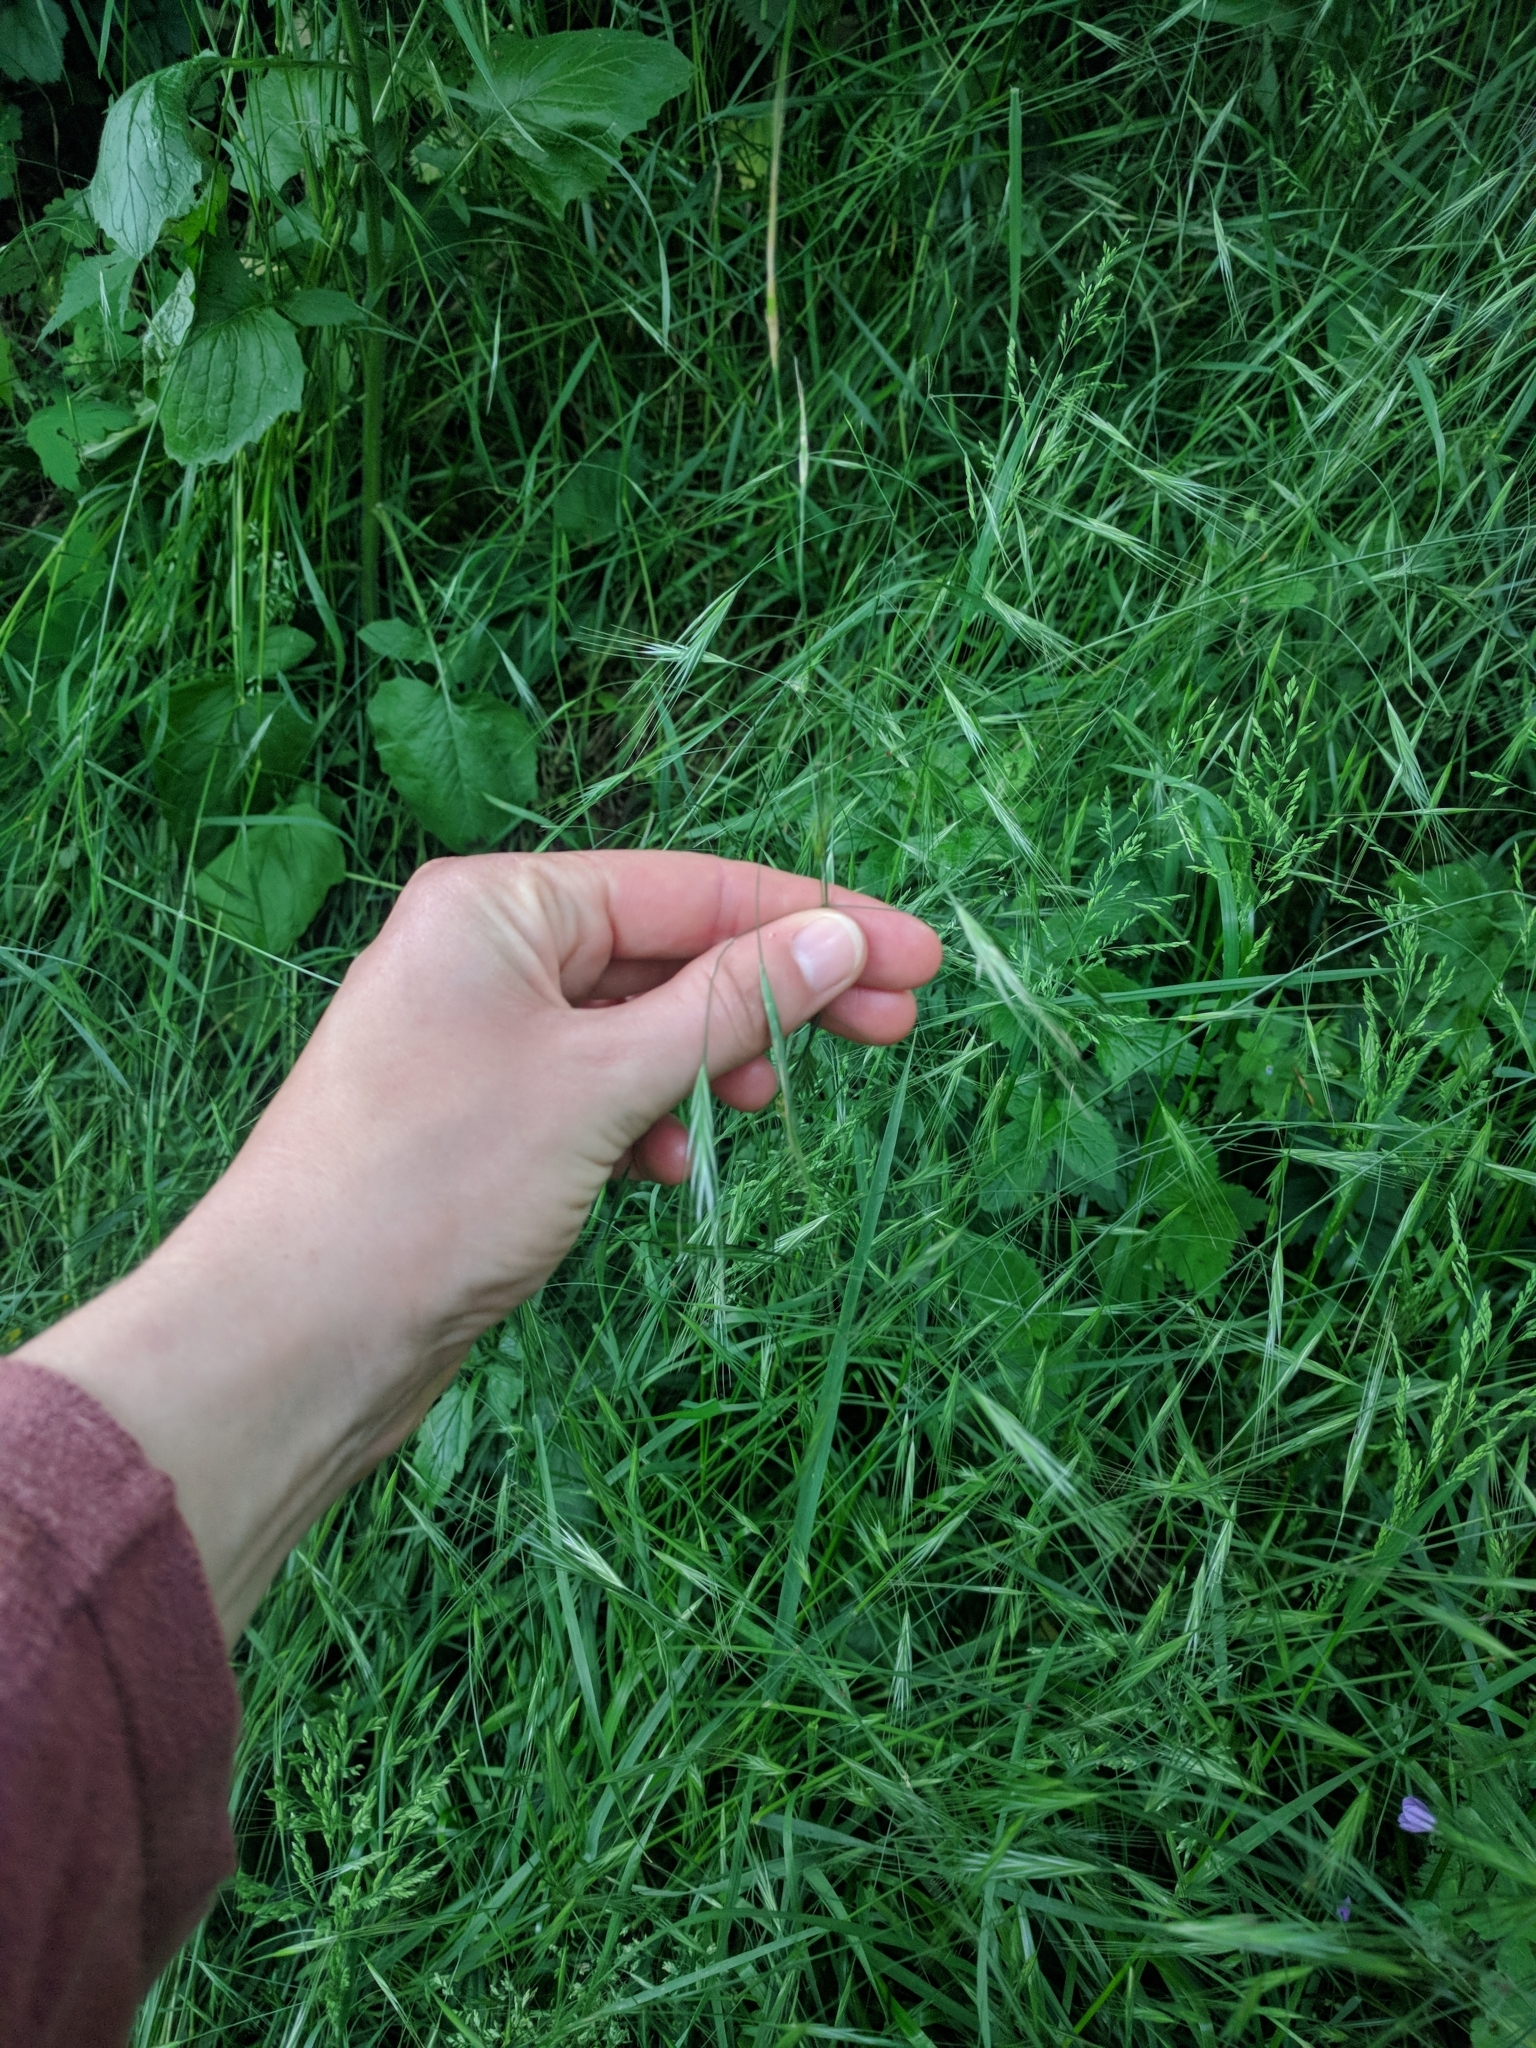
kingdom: Plantae
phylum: Tracheophyta
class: Liliopsida
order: Poales
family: Poaceae
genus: Bromus
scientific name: Bromus sterilis
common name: Poverty brome
